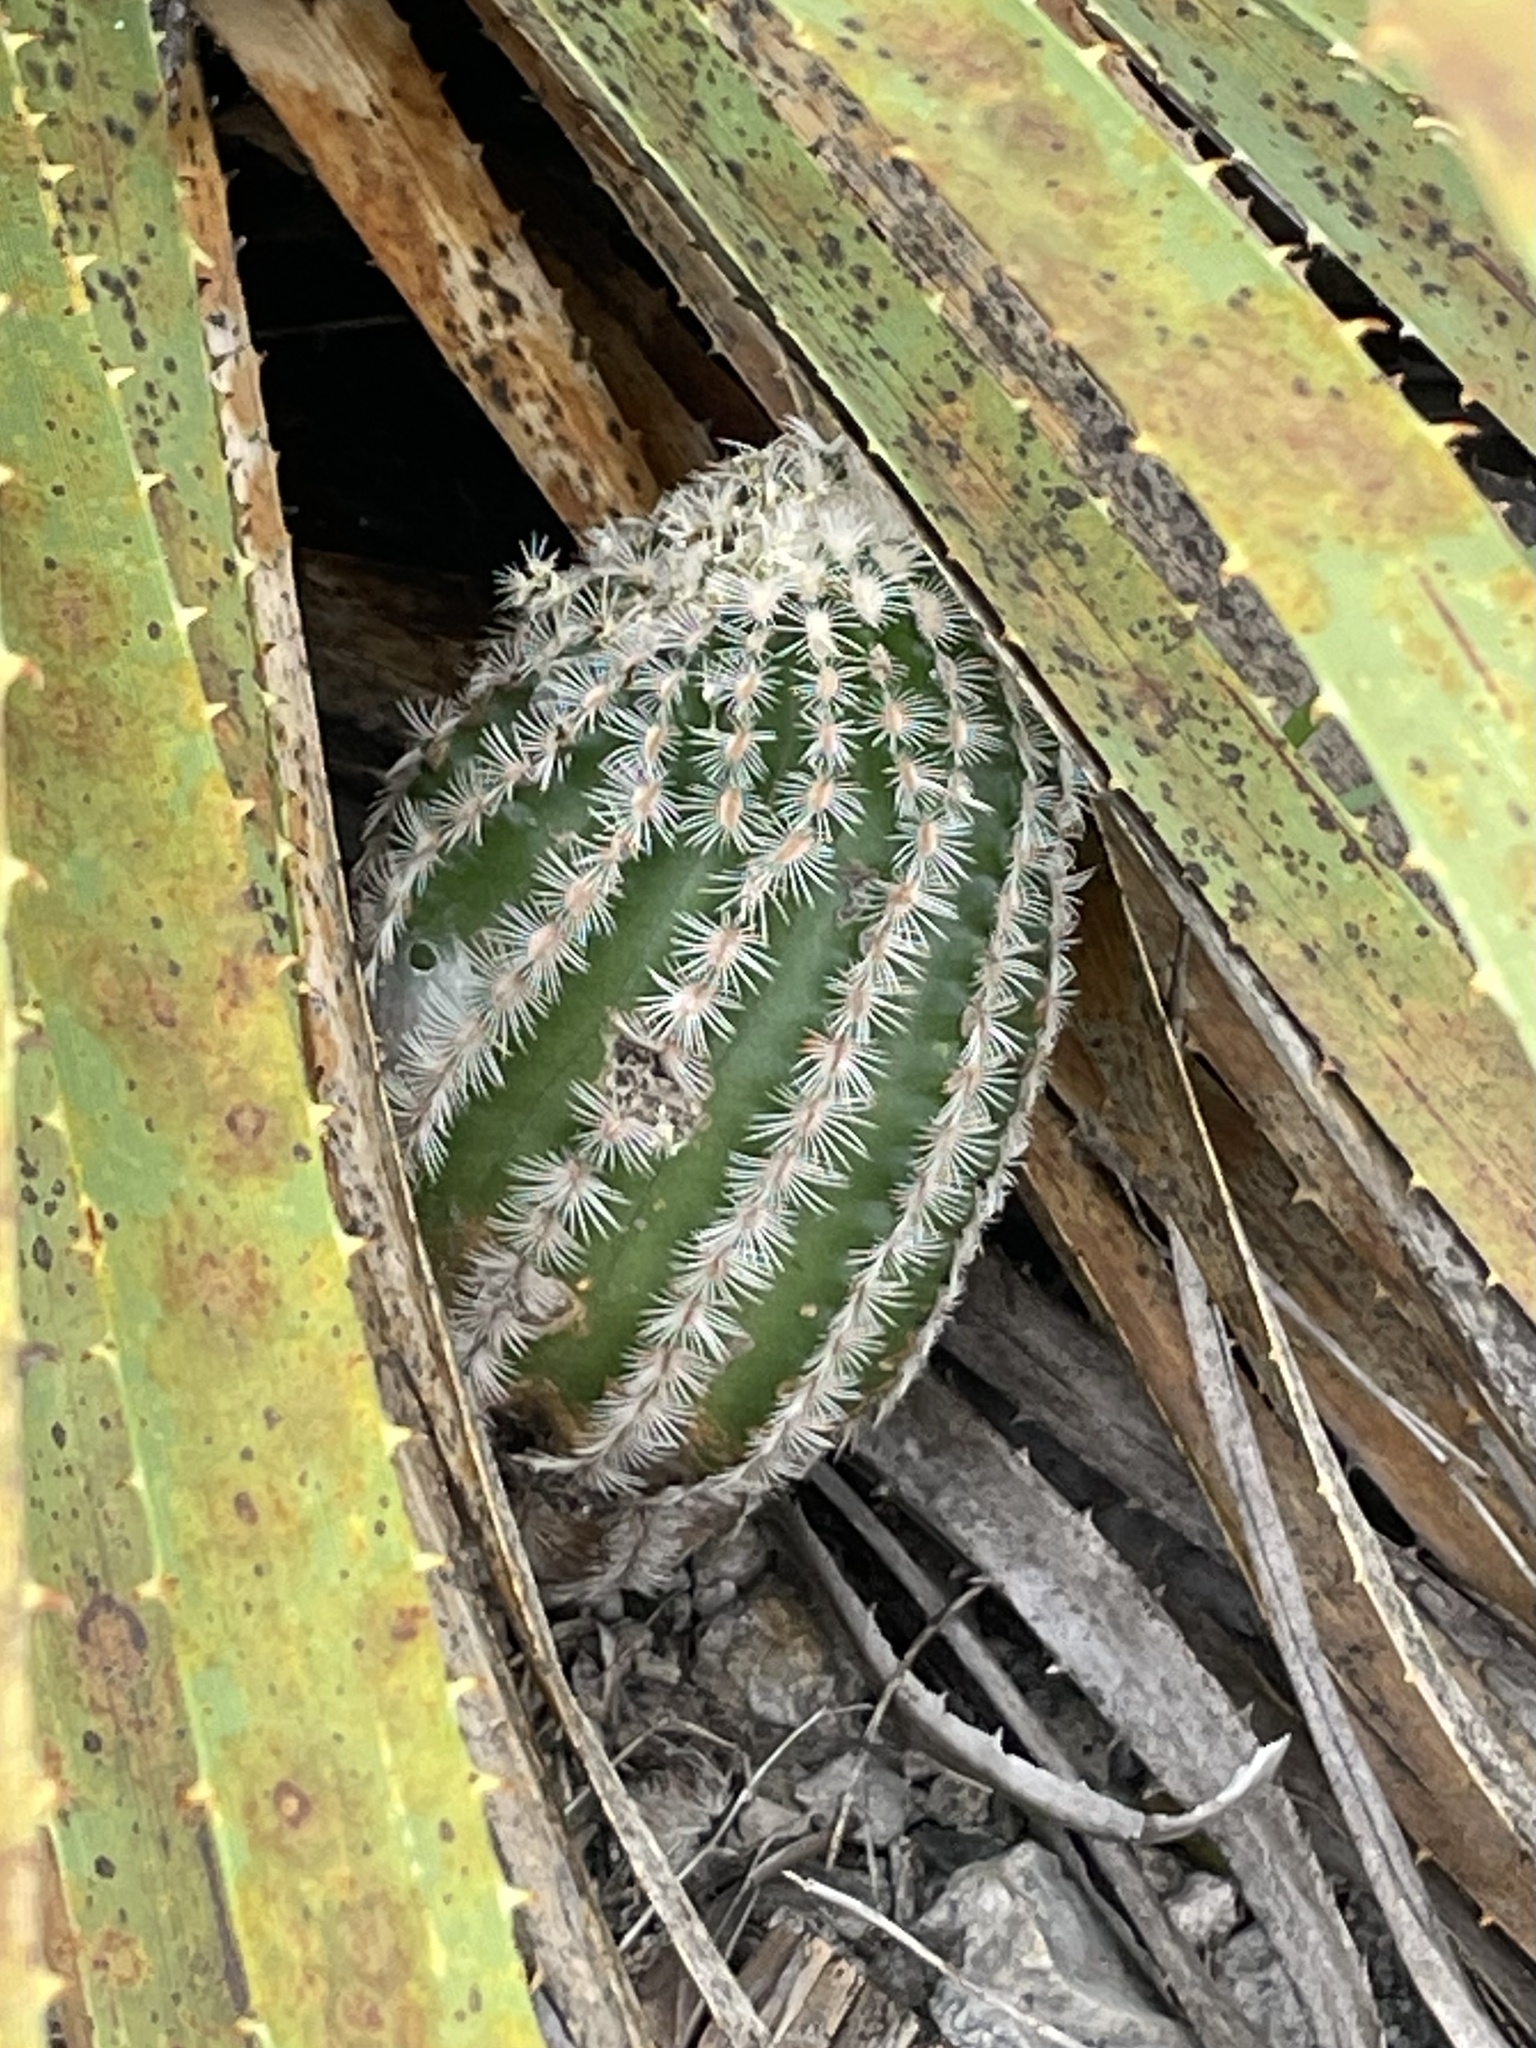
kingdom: Plantae
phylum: Tracheophyta
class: Magnoliopsida
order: Caryophyllales
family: Cactaceae
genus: Echinocereus
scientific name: Echinocereus reichenbachii
